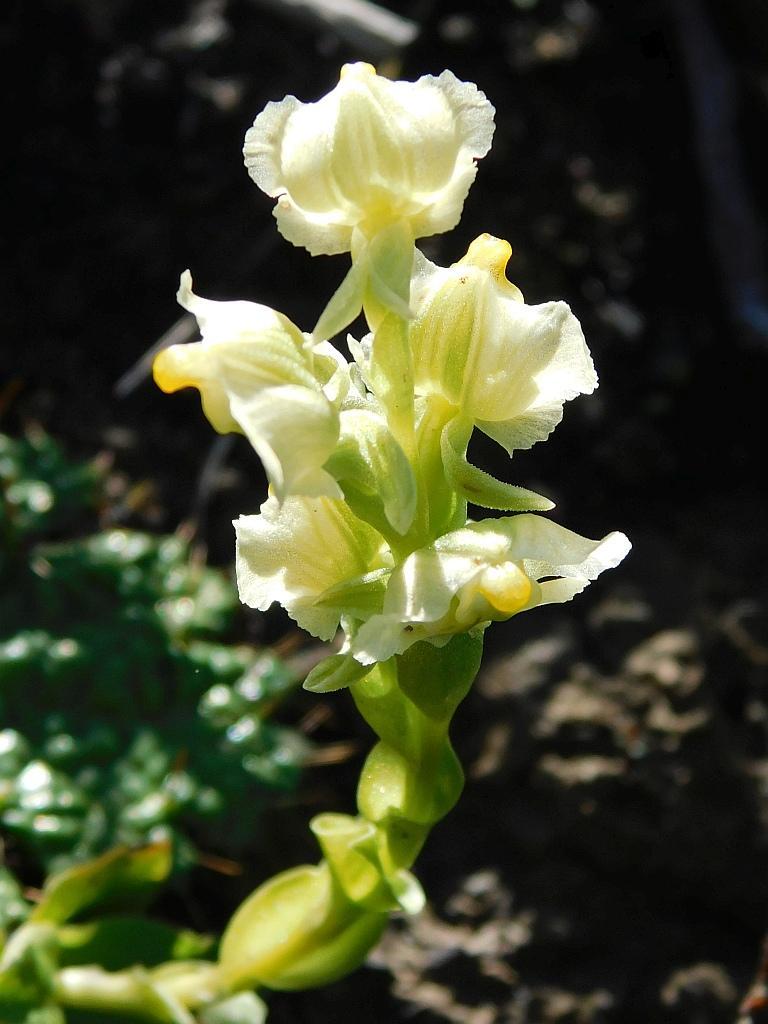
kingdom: Plantae
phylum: Tracheophyta
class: Liliopsida
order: Asparagales
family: Orchidaceae
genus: Pterygodium
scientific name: Pterygodium alatum
